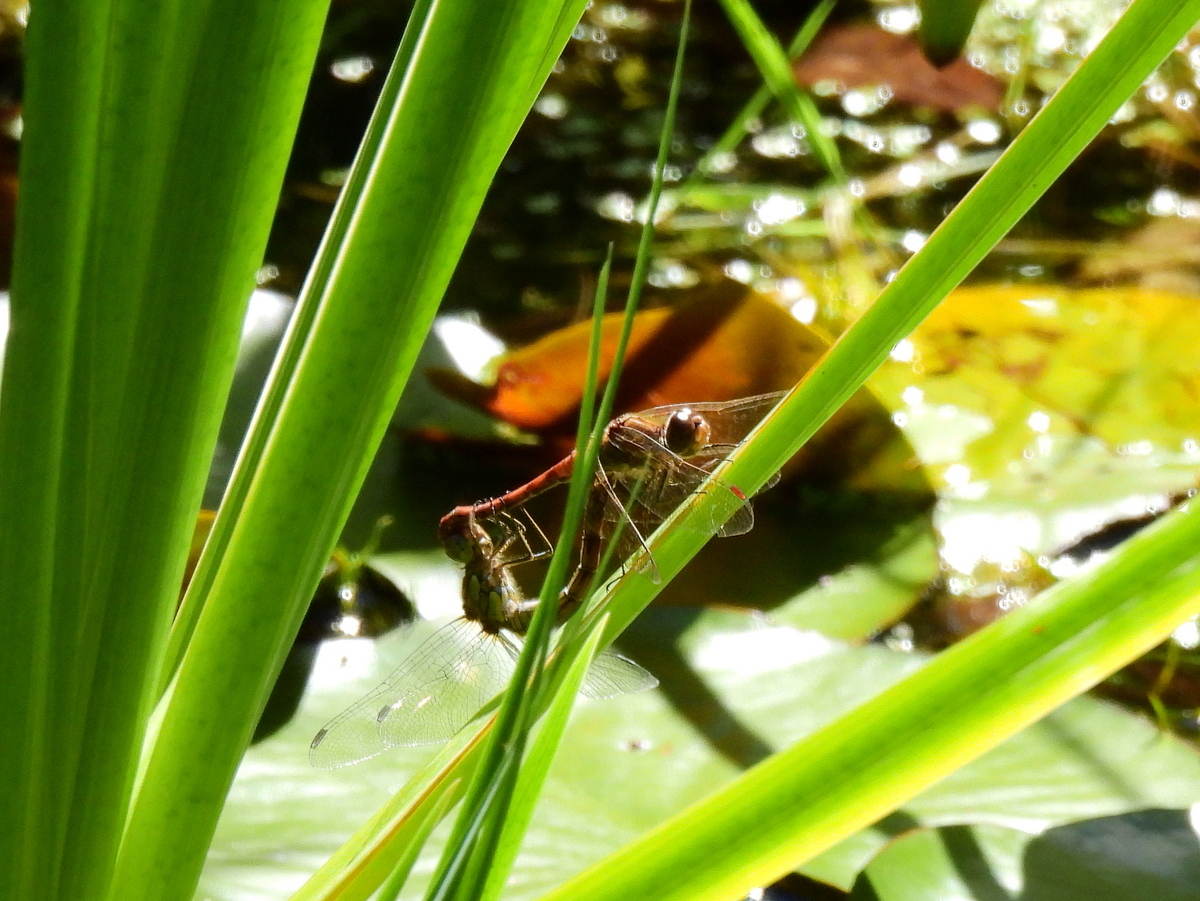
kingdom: Animalia
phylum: Arthropoda
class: Insecta
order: Odonata
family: Libellulidae
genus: Sympetrum
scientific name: Sympetrum striolatum
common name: Common darter
